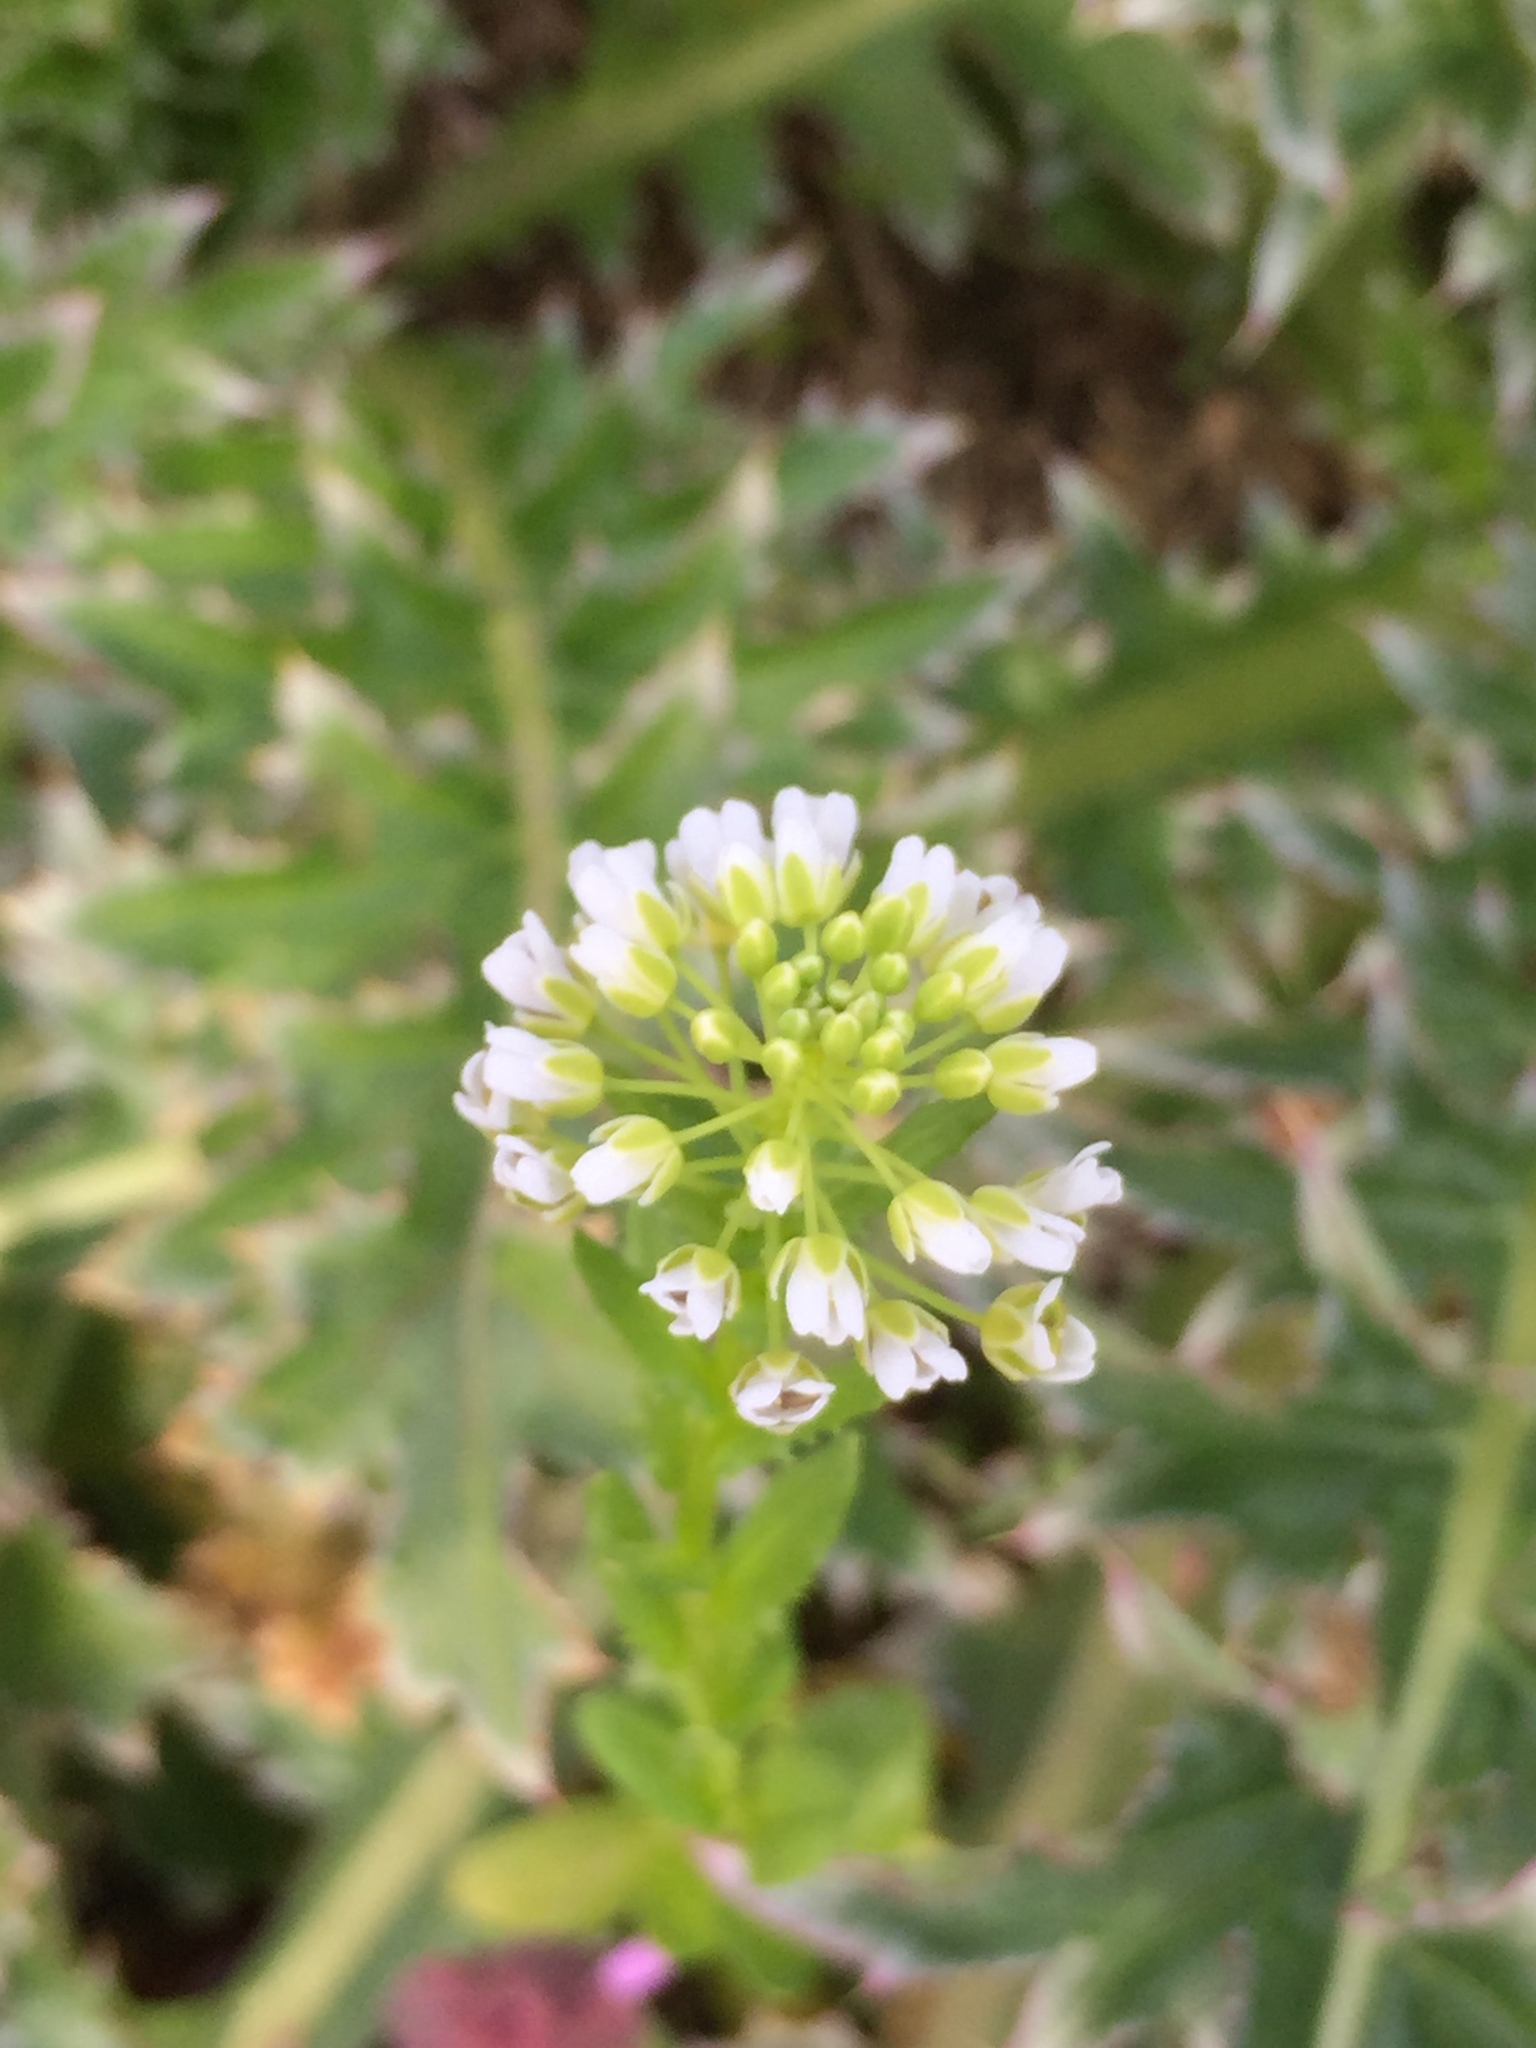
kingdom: Plantae
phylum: Tracheophyta
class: Magnoliopsida
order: Brassicales
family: Brassicaceae
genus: Mummenhoffia
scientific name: Mummenhoffia alliacea
